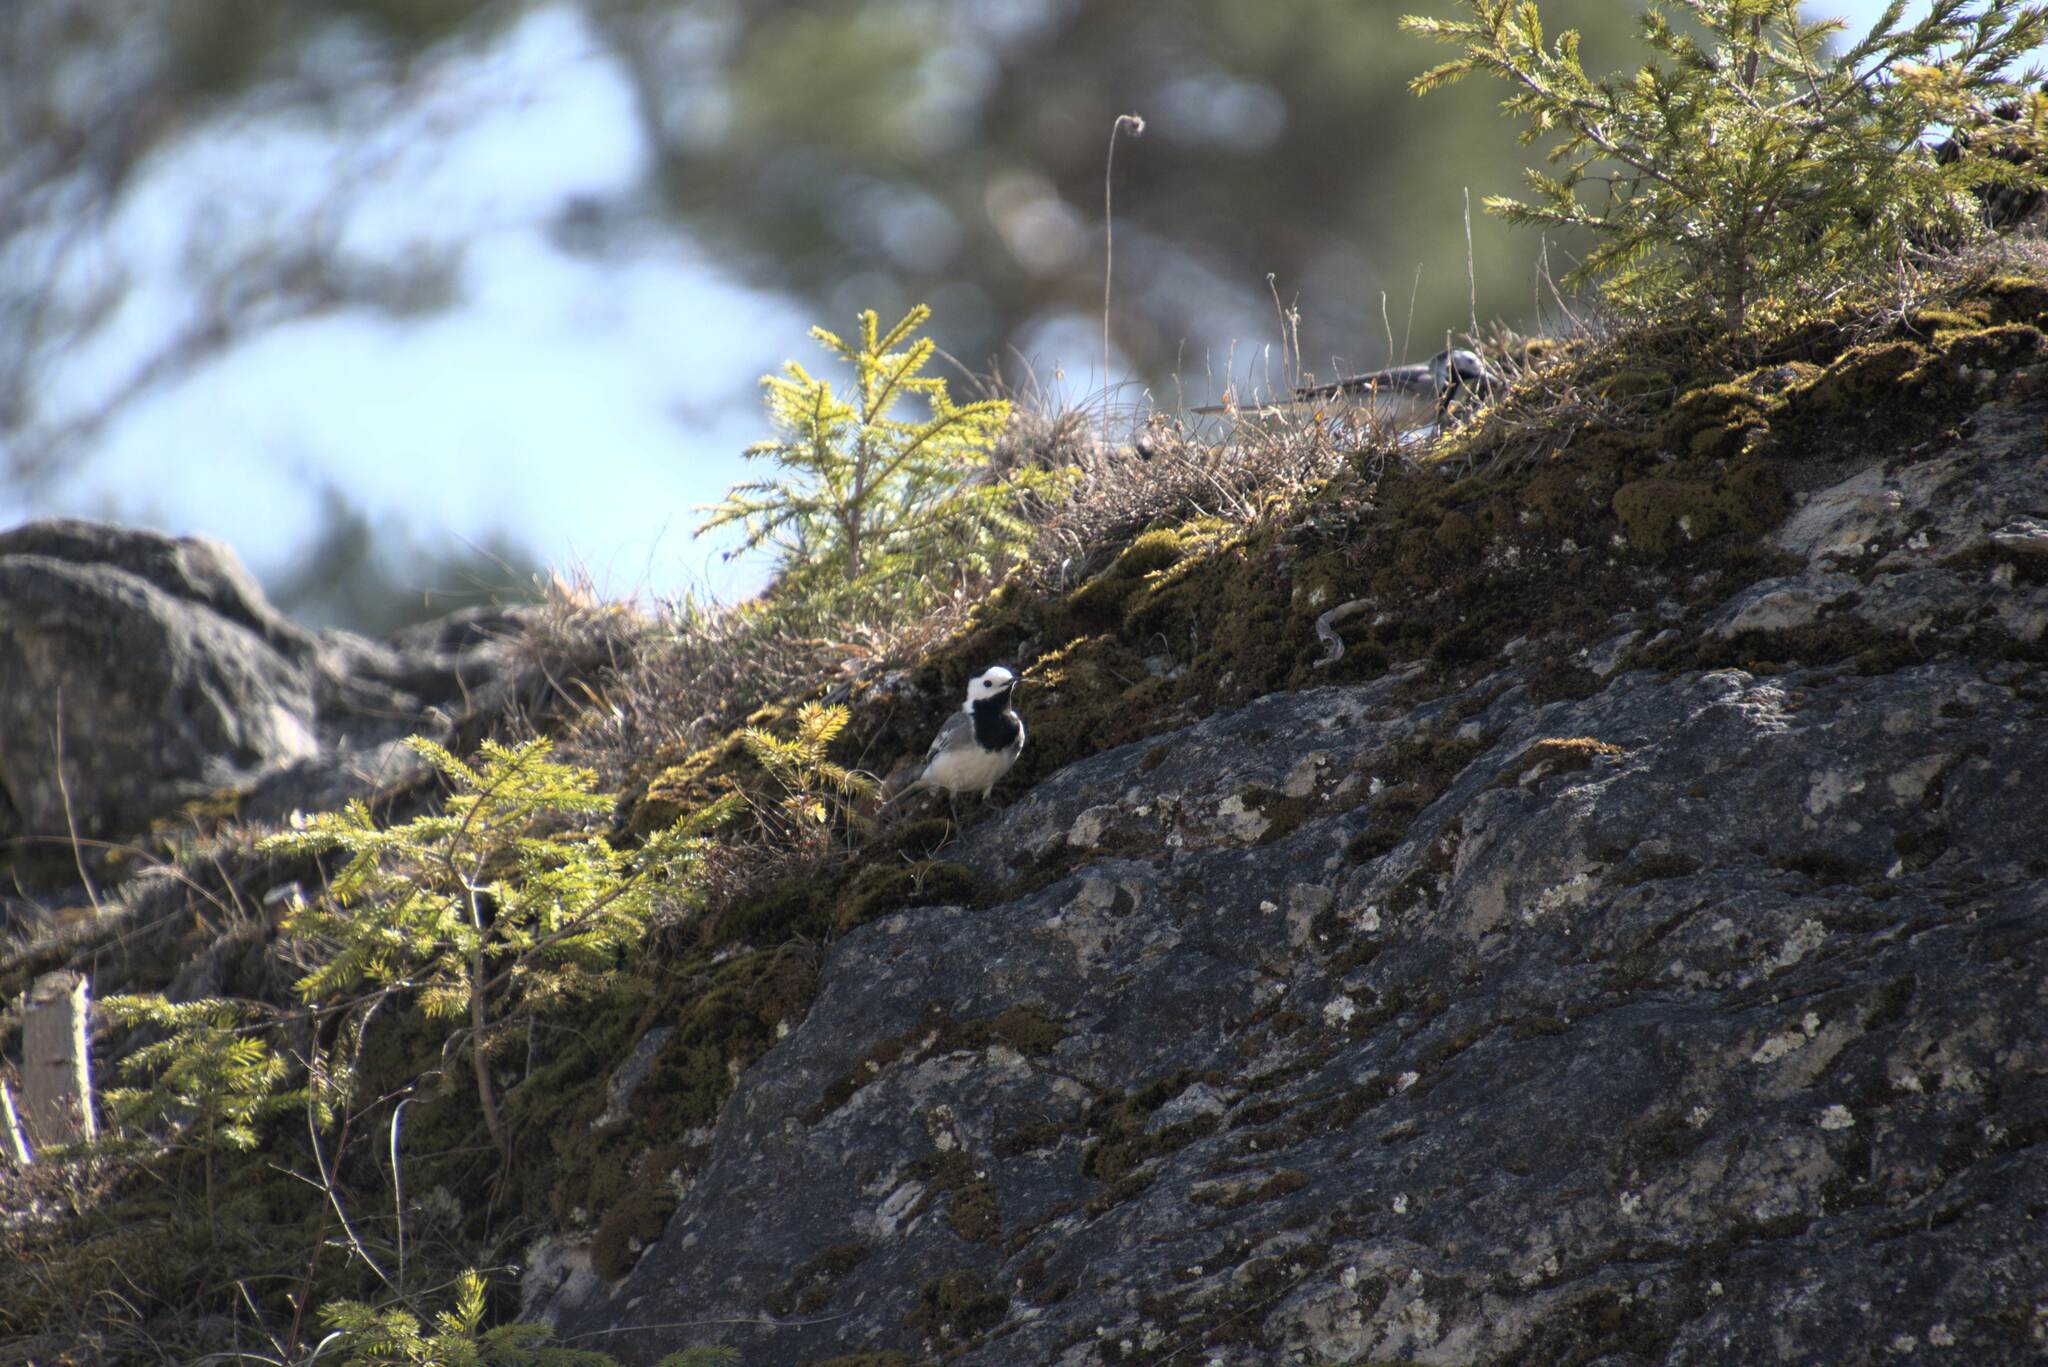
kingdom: Animalia
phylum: Chordata
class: Aves
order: Passeriformes
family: Motacillidae
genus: Motacilla
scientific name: Motacilla alba
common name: White wagtail
